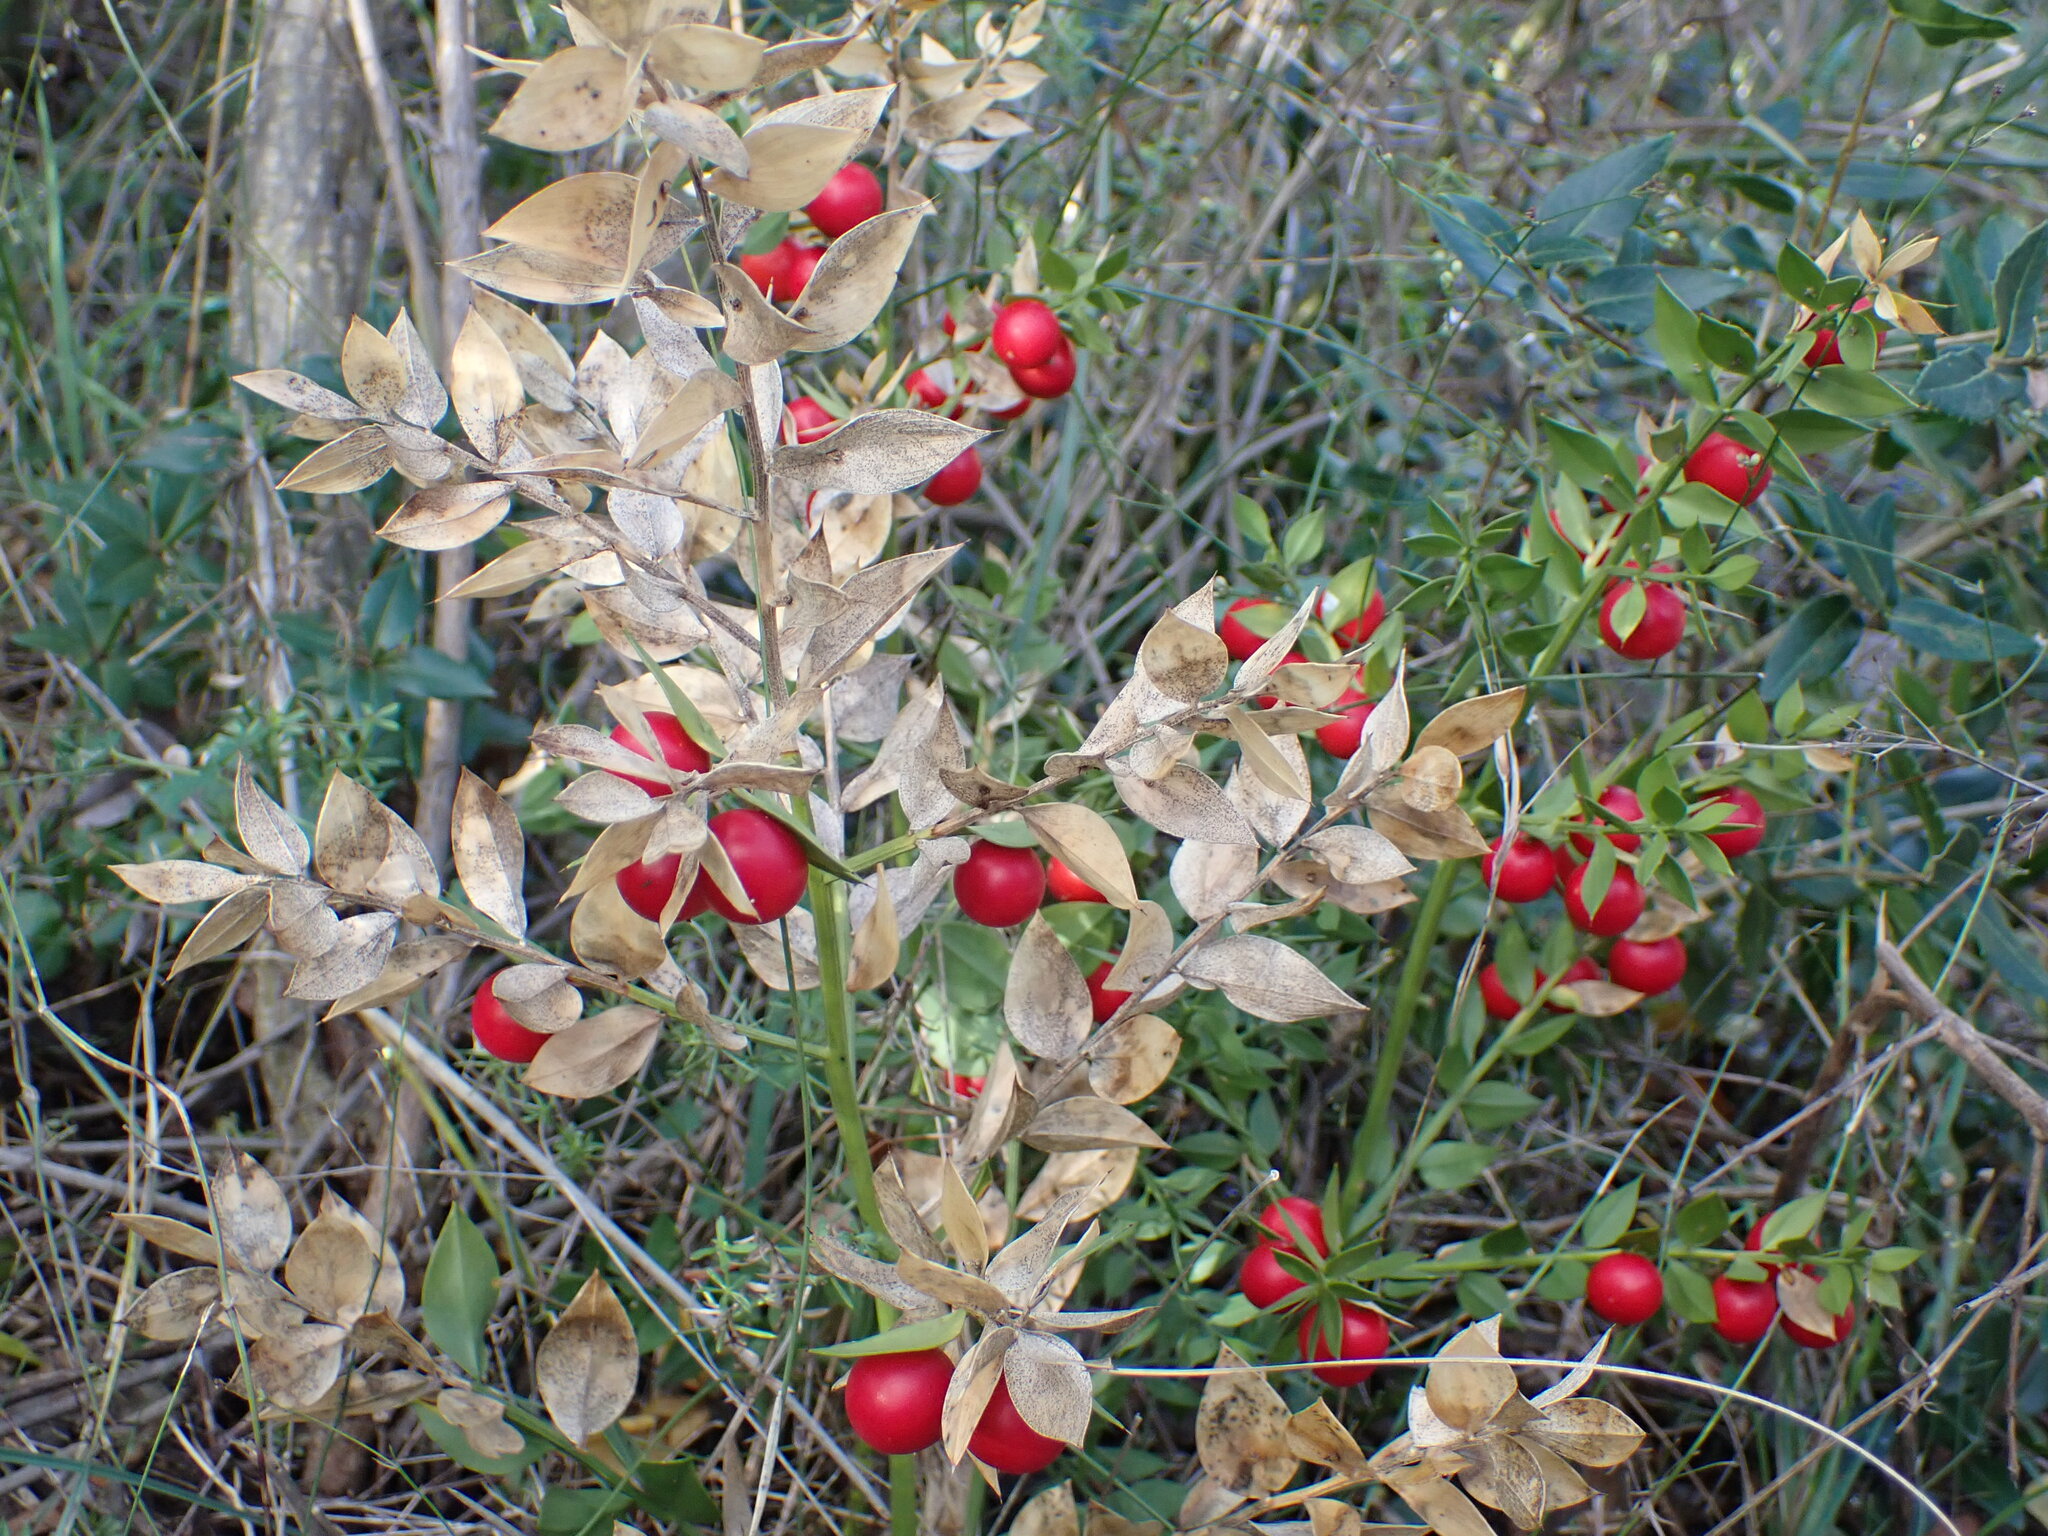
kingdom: Plantae
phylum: Tracheophyta
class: Liliopsida
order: Asparagales
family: Asparagaceae
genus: Ruscus
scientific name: Ruscus aculeatus
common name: Butcher's-broom
